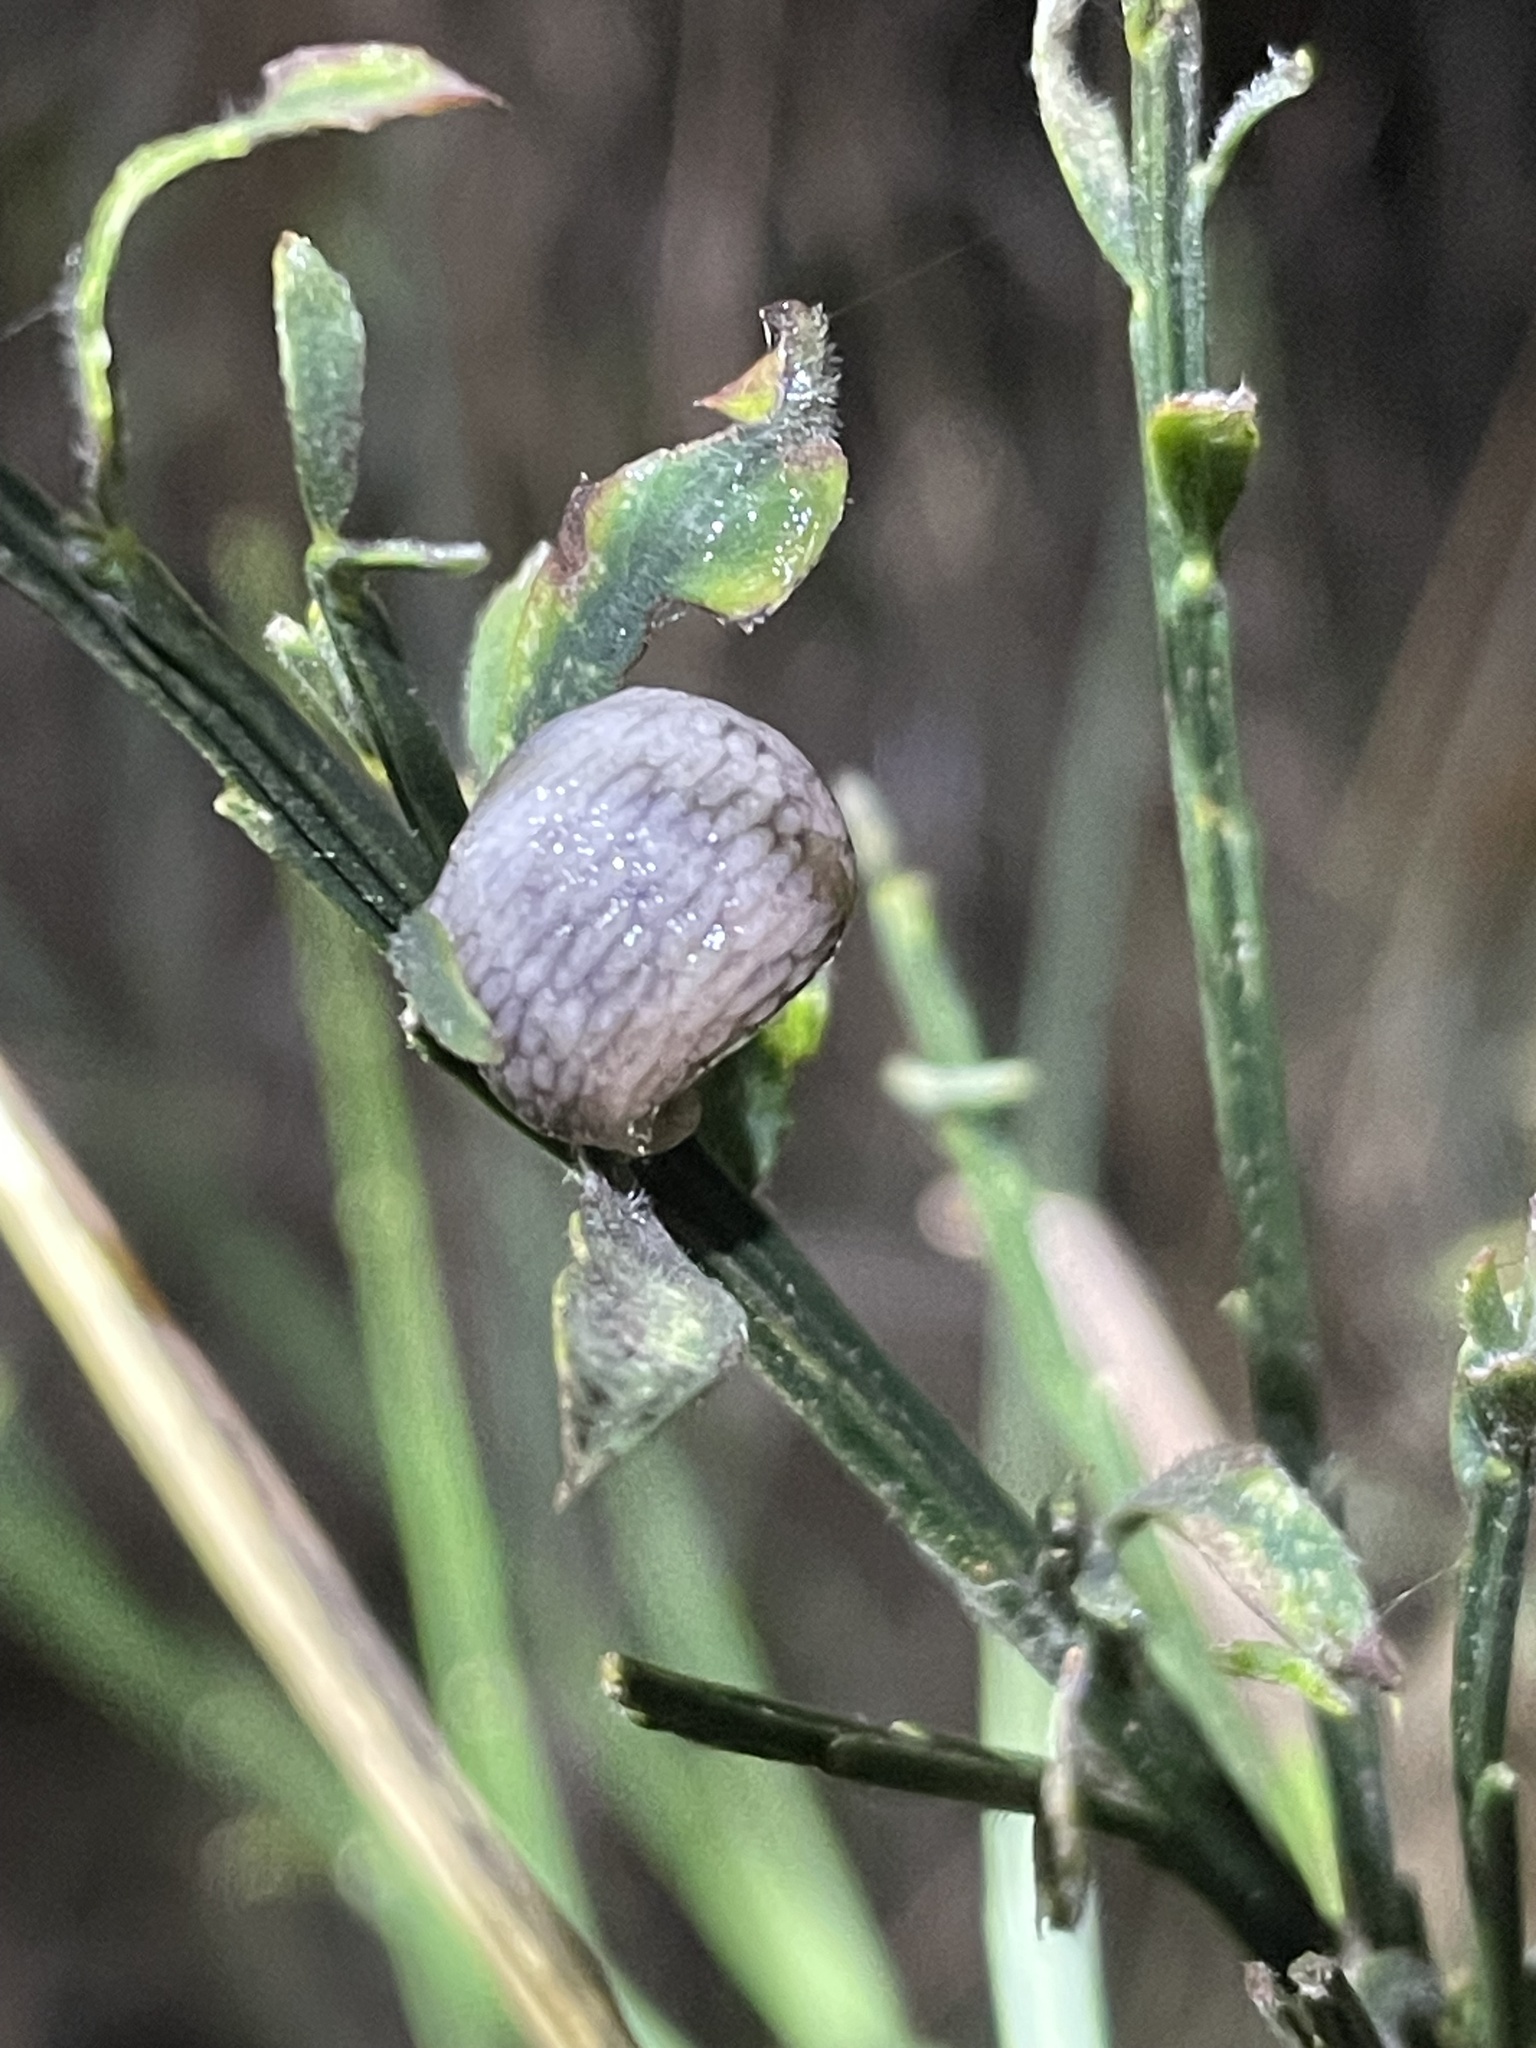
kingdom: Animalia
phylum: Mollusca
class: Gastropoda
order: Stylommatophora
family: Agriolimacidae
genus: Deroceras
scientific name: Deroceras reticulatum
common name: Gray field slug
